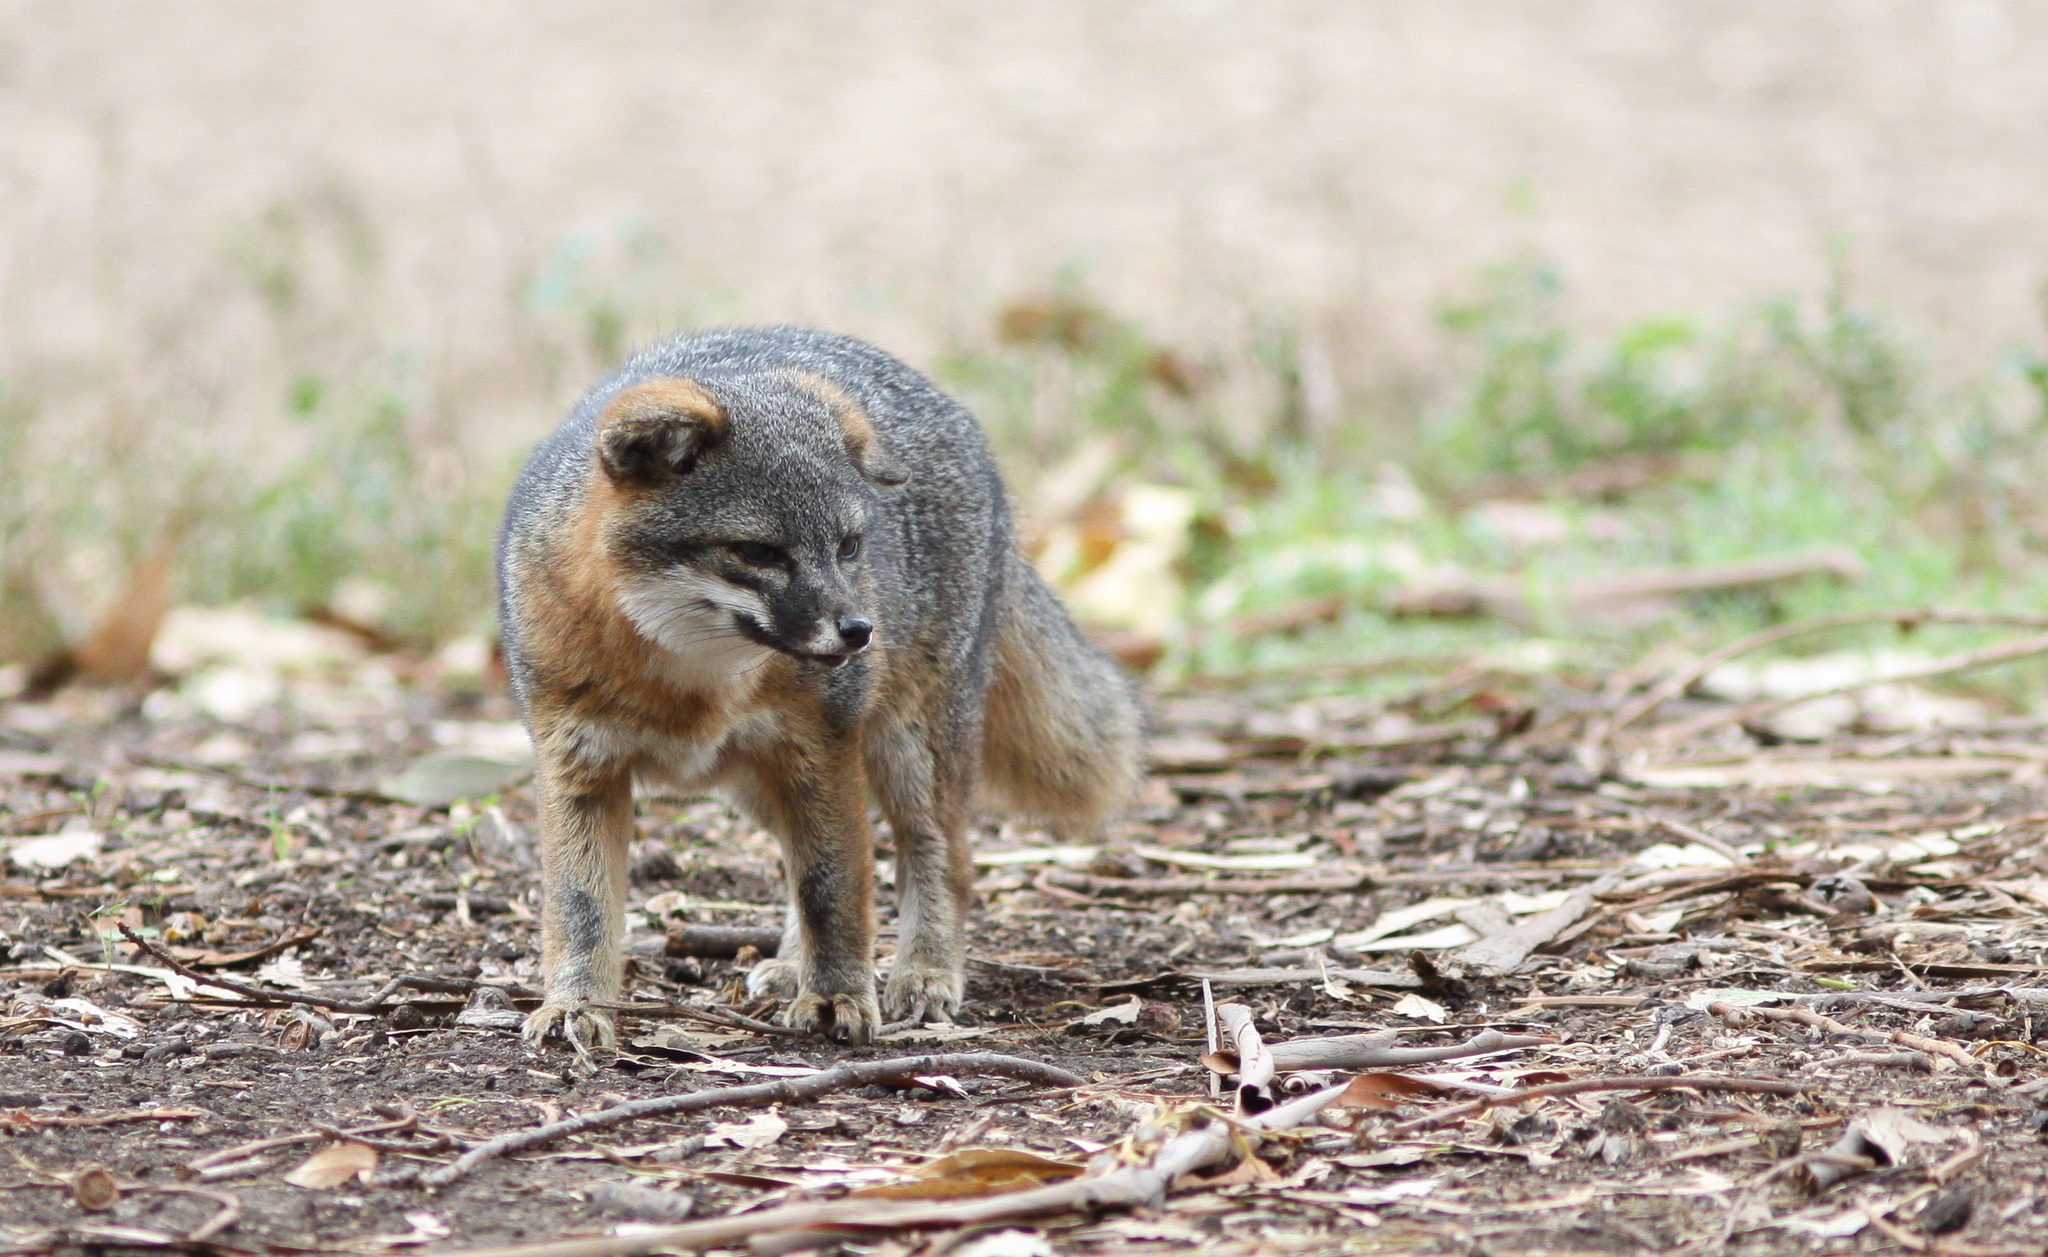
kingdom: Animalia
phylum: Chordata
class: Mammalia
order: Carnivora
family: Canidae
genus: Urocyon
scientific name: Urocyon littoralis
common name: Island gray fox
